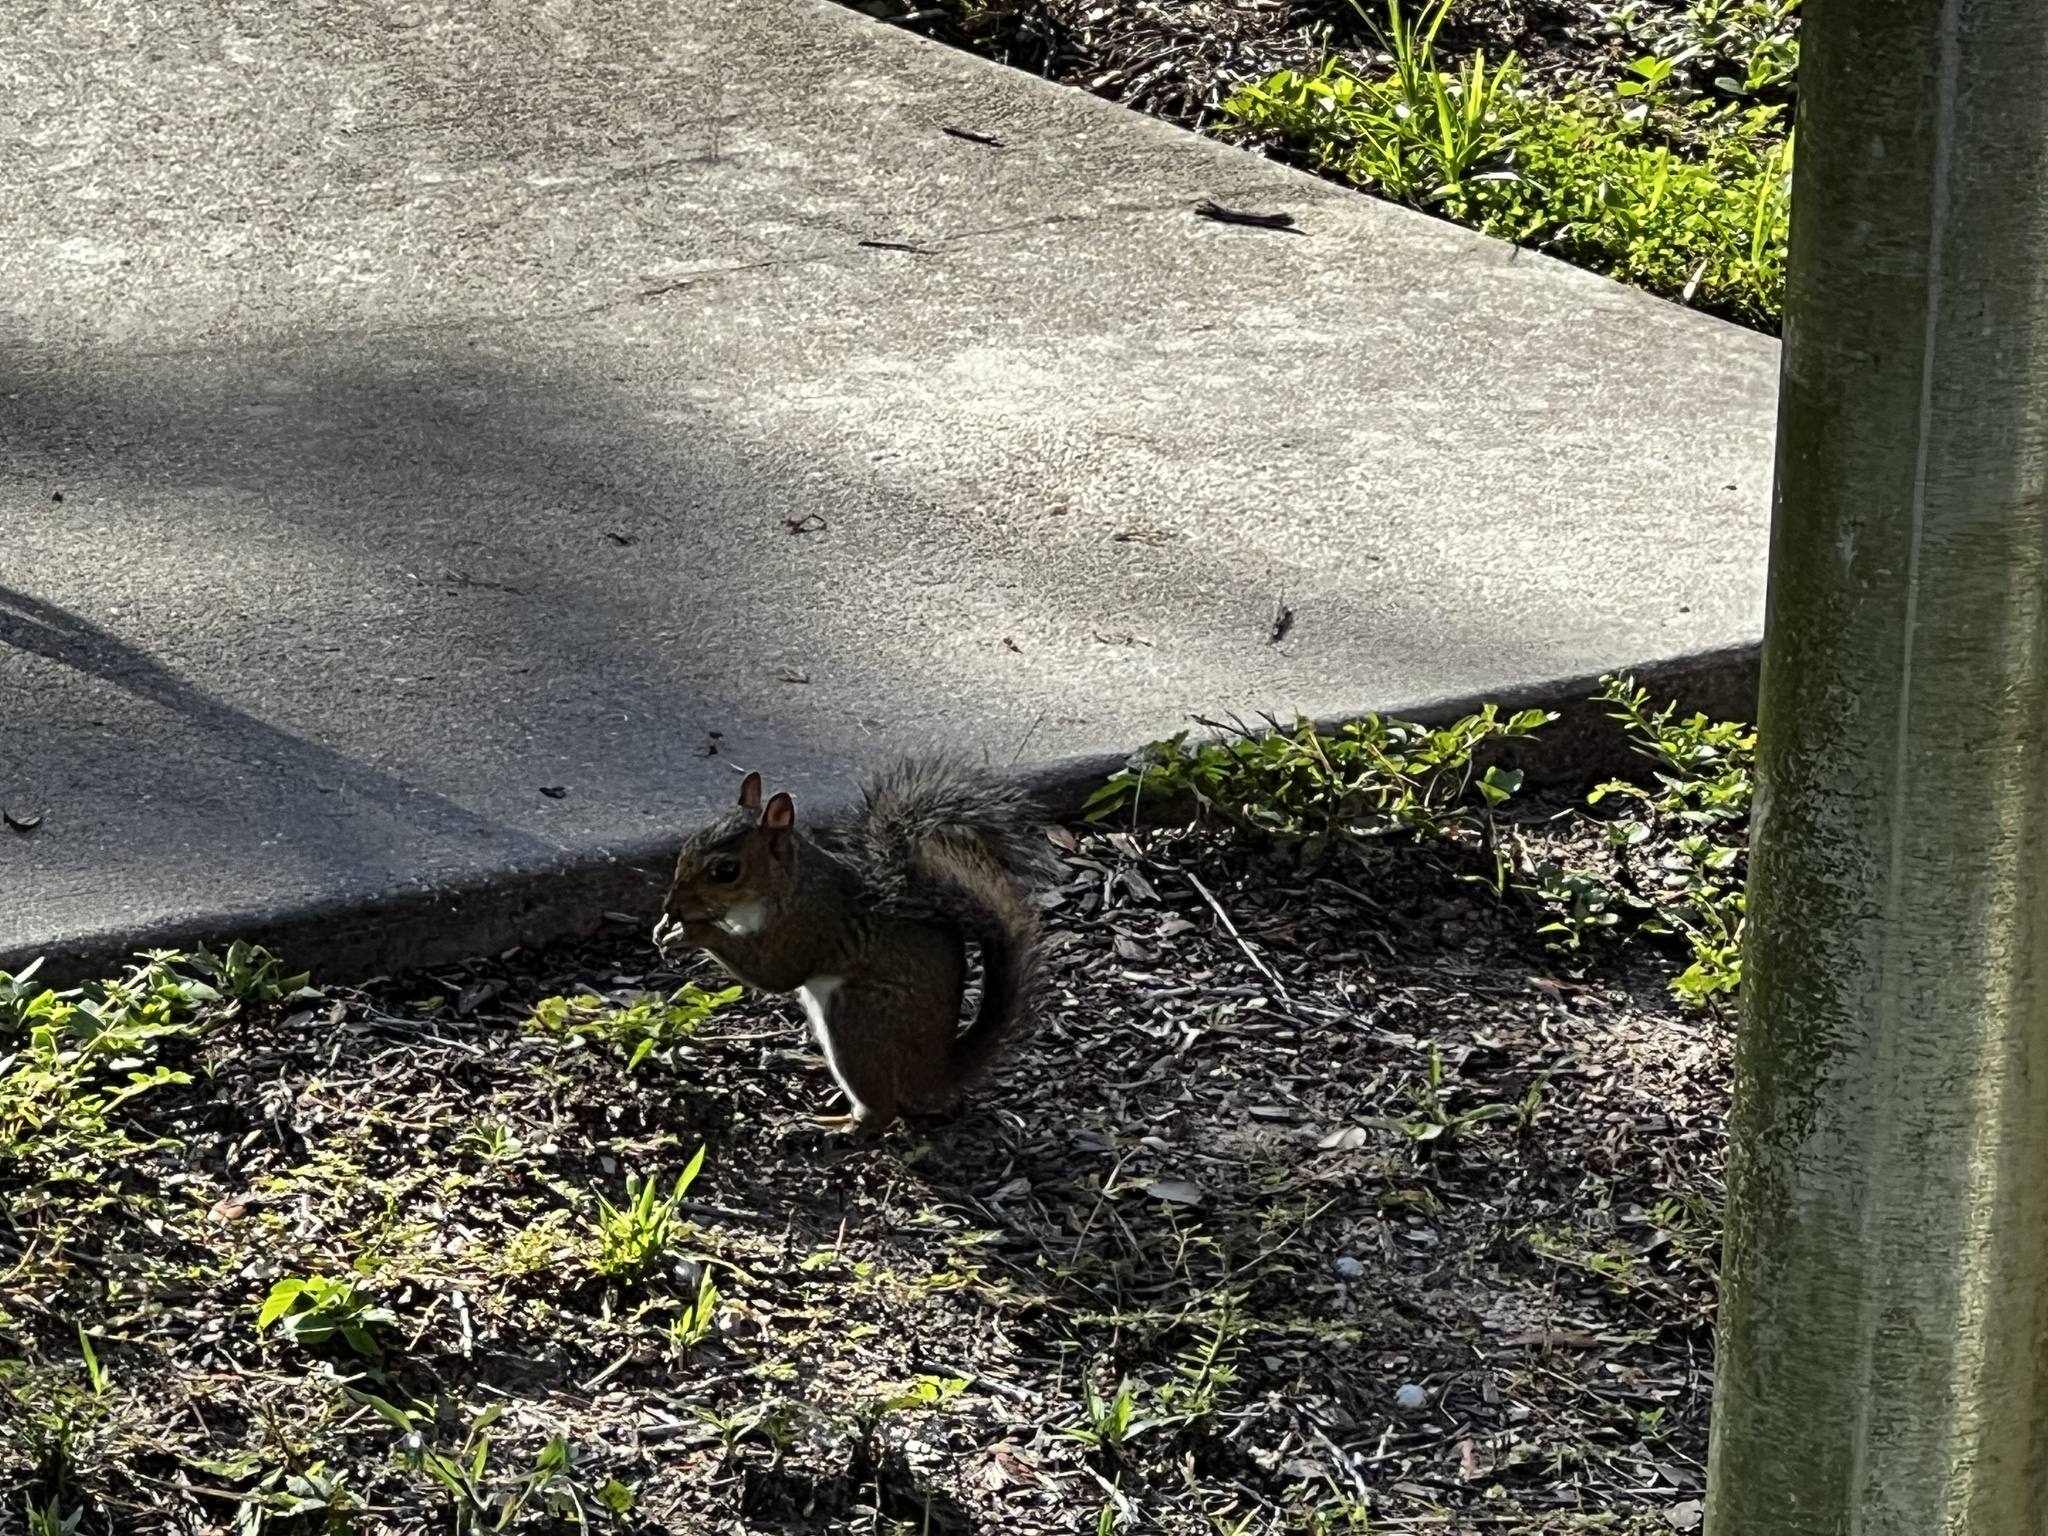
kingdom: Animalia
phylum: Chordata
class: Mammalia
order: Rodentia
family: Sciuridae
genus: Sciurus
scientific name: Sciurus carolinensis
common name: Eastern gray squirrel
